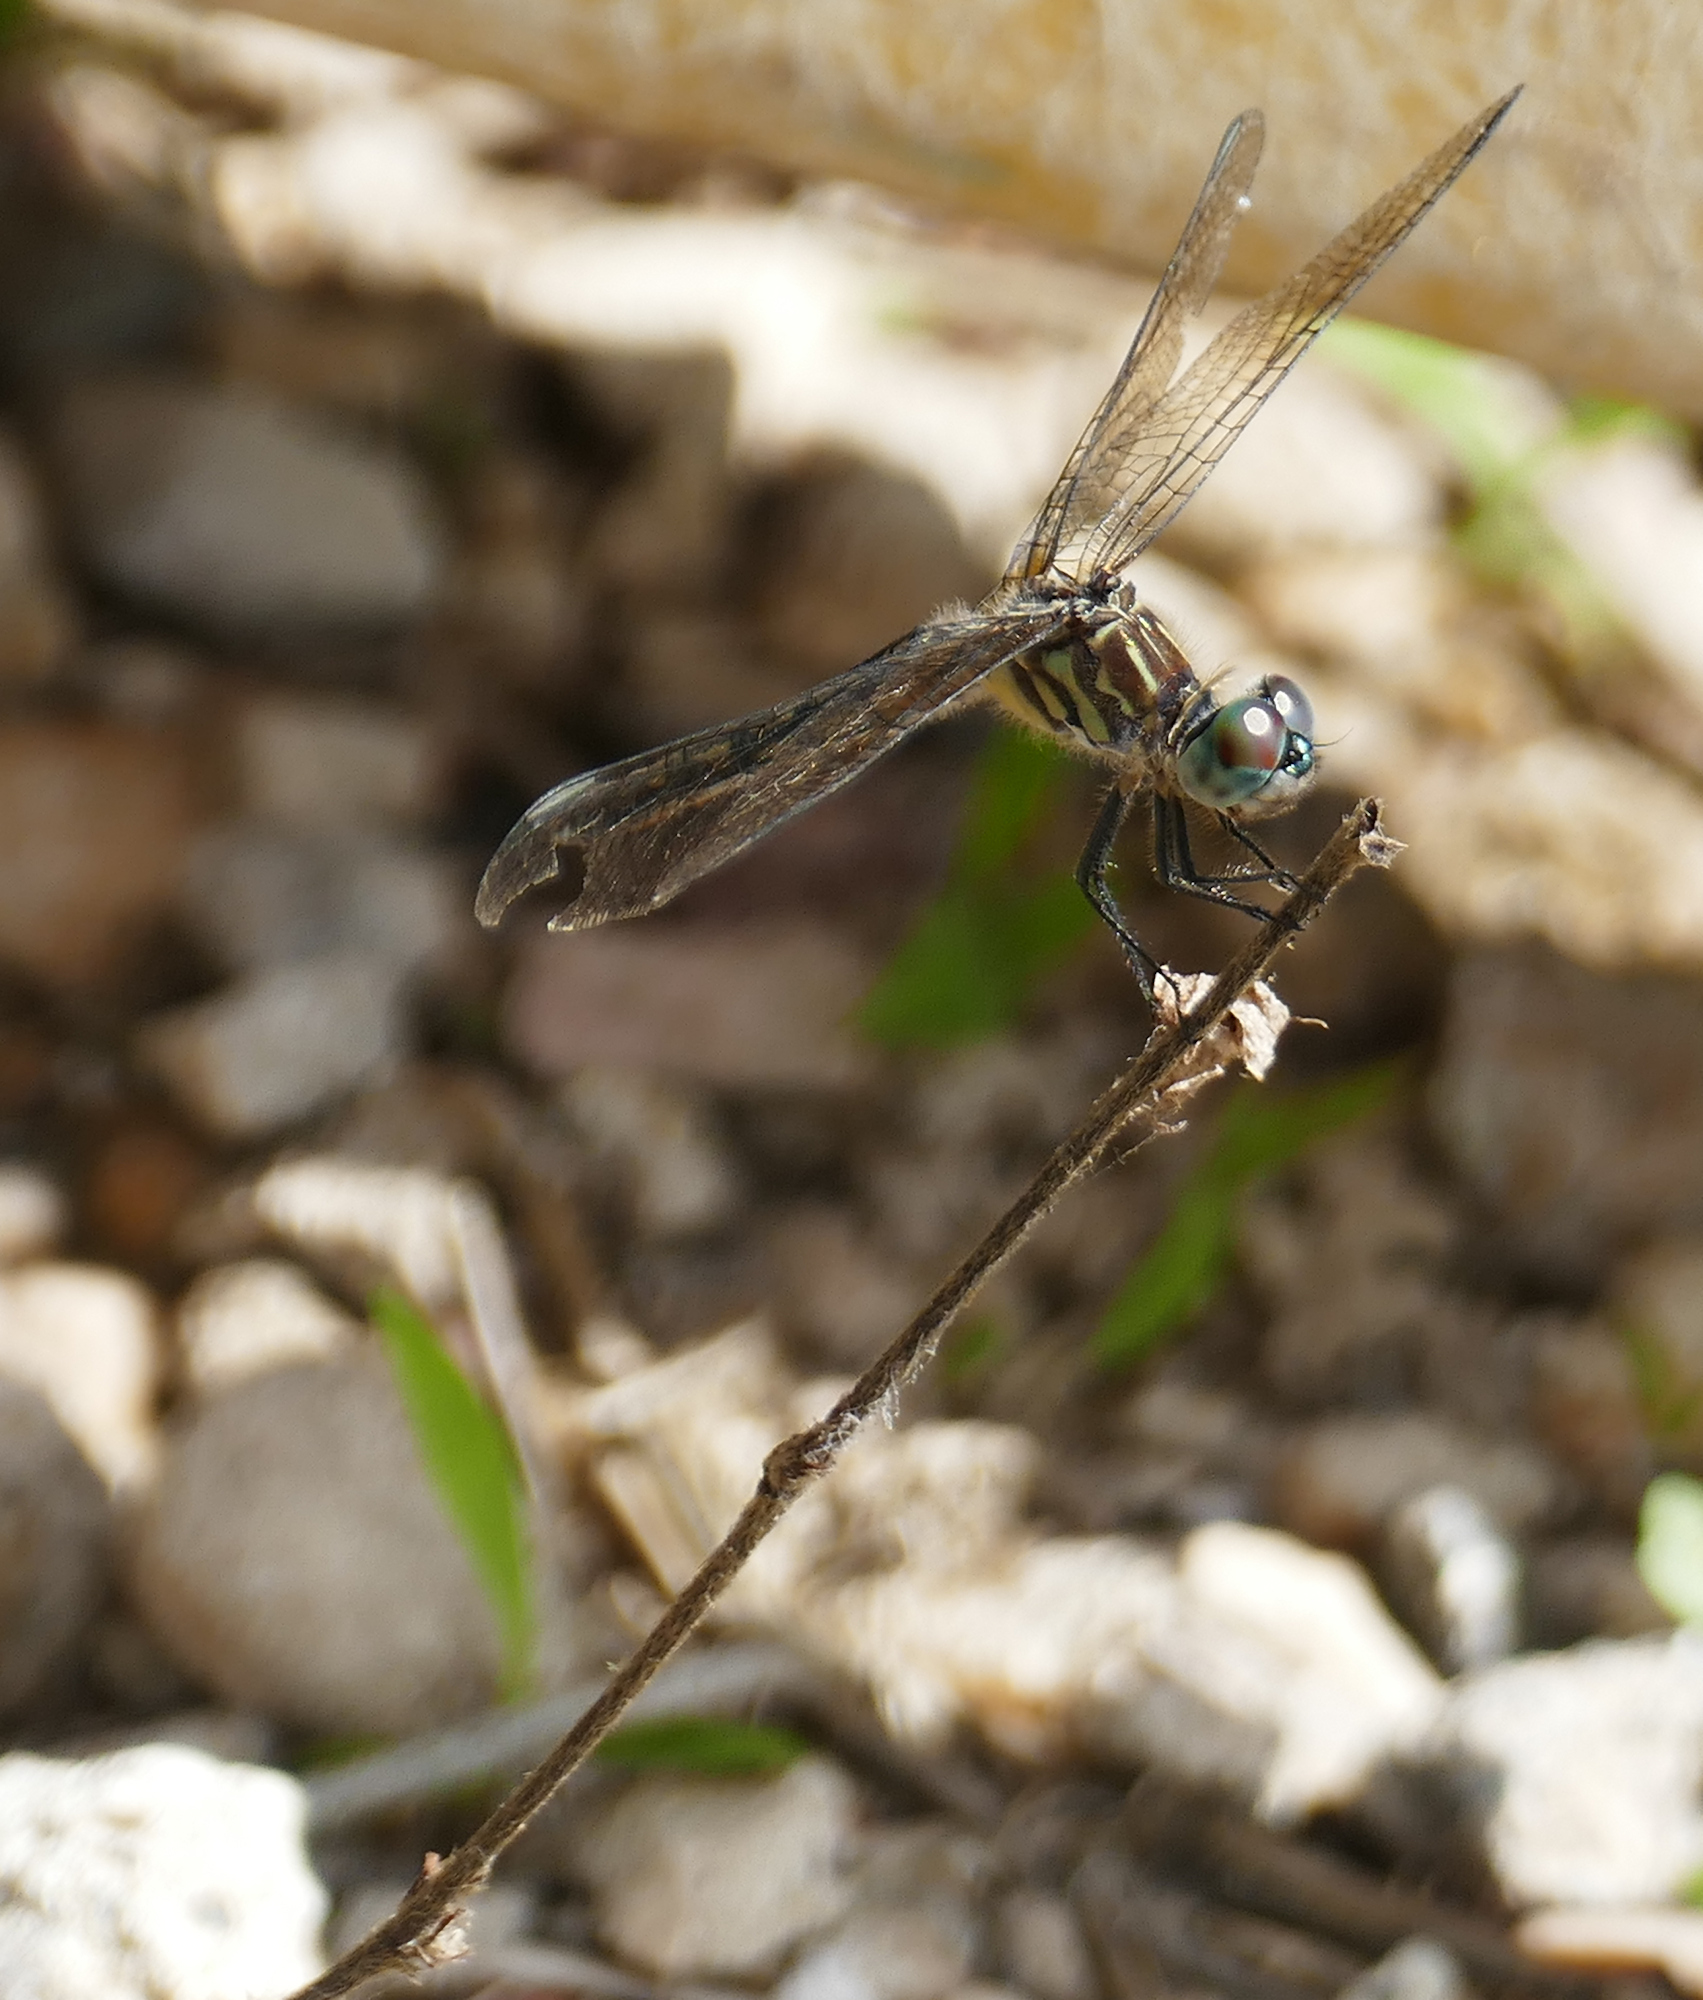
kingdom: Animalia
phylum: Arthropoda
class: Insecta
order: Odonata
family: Libellulidae
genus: Pachydiplax
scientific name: Pachydiplax longipennis
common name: Blue dasher
